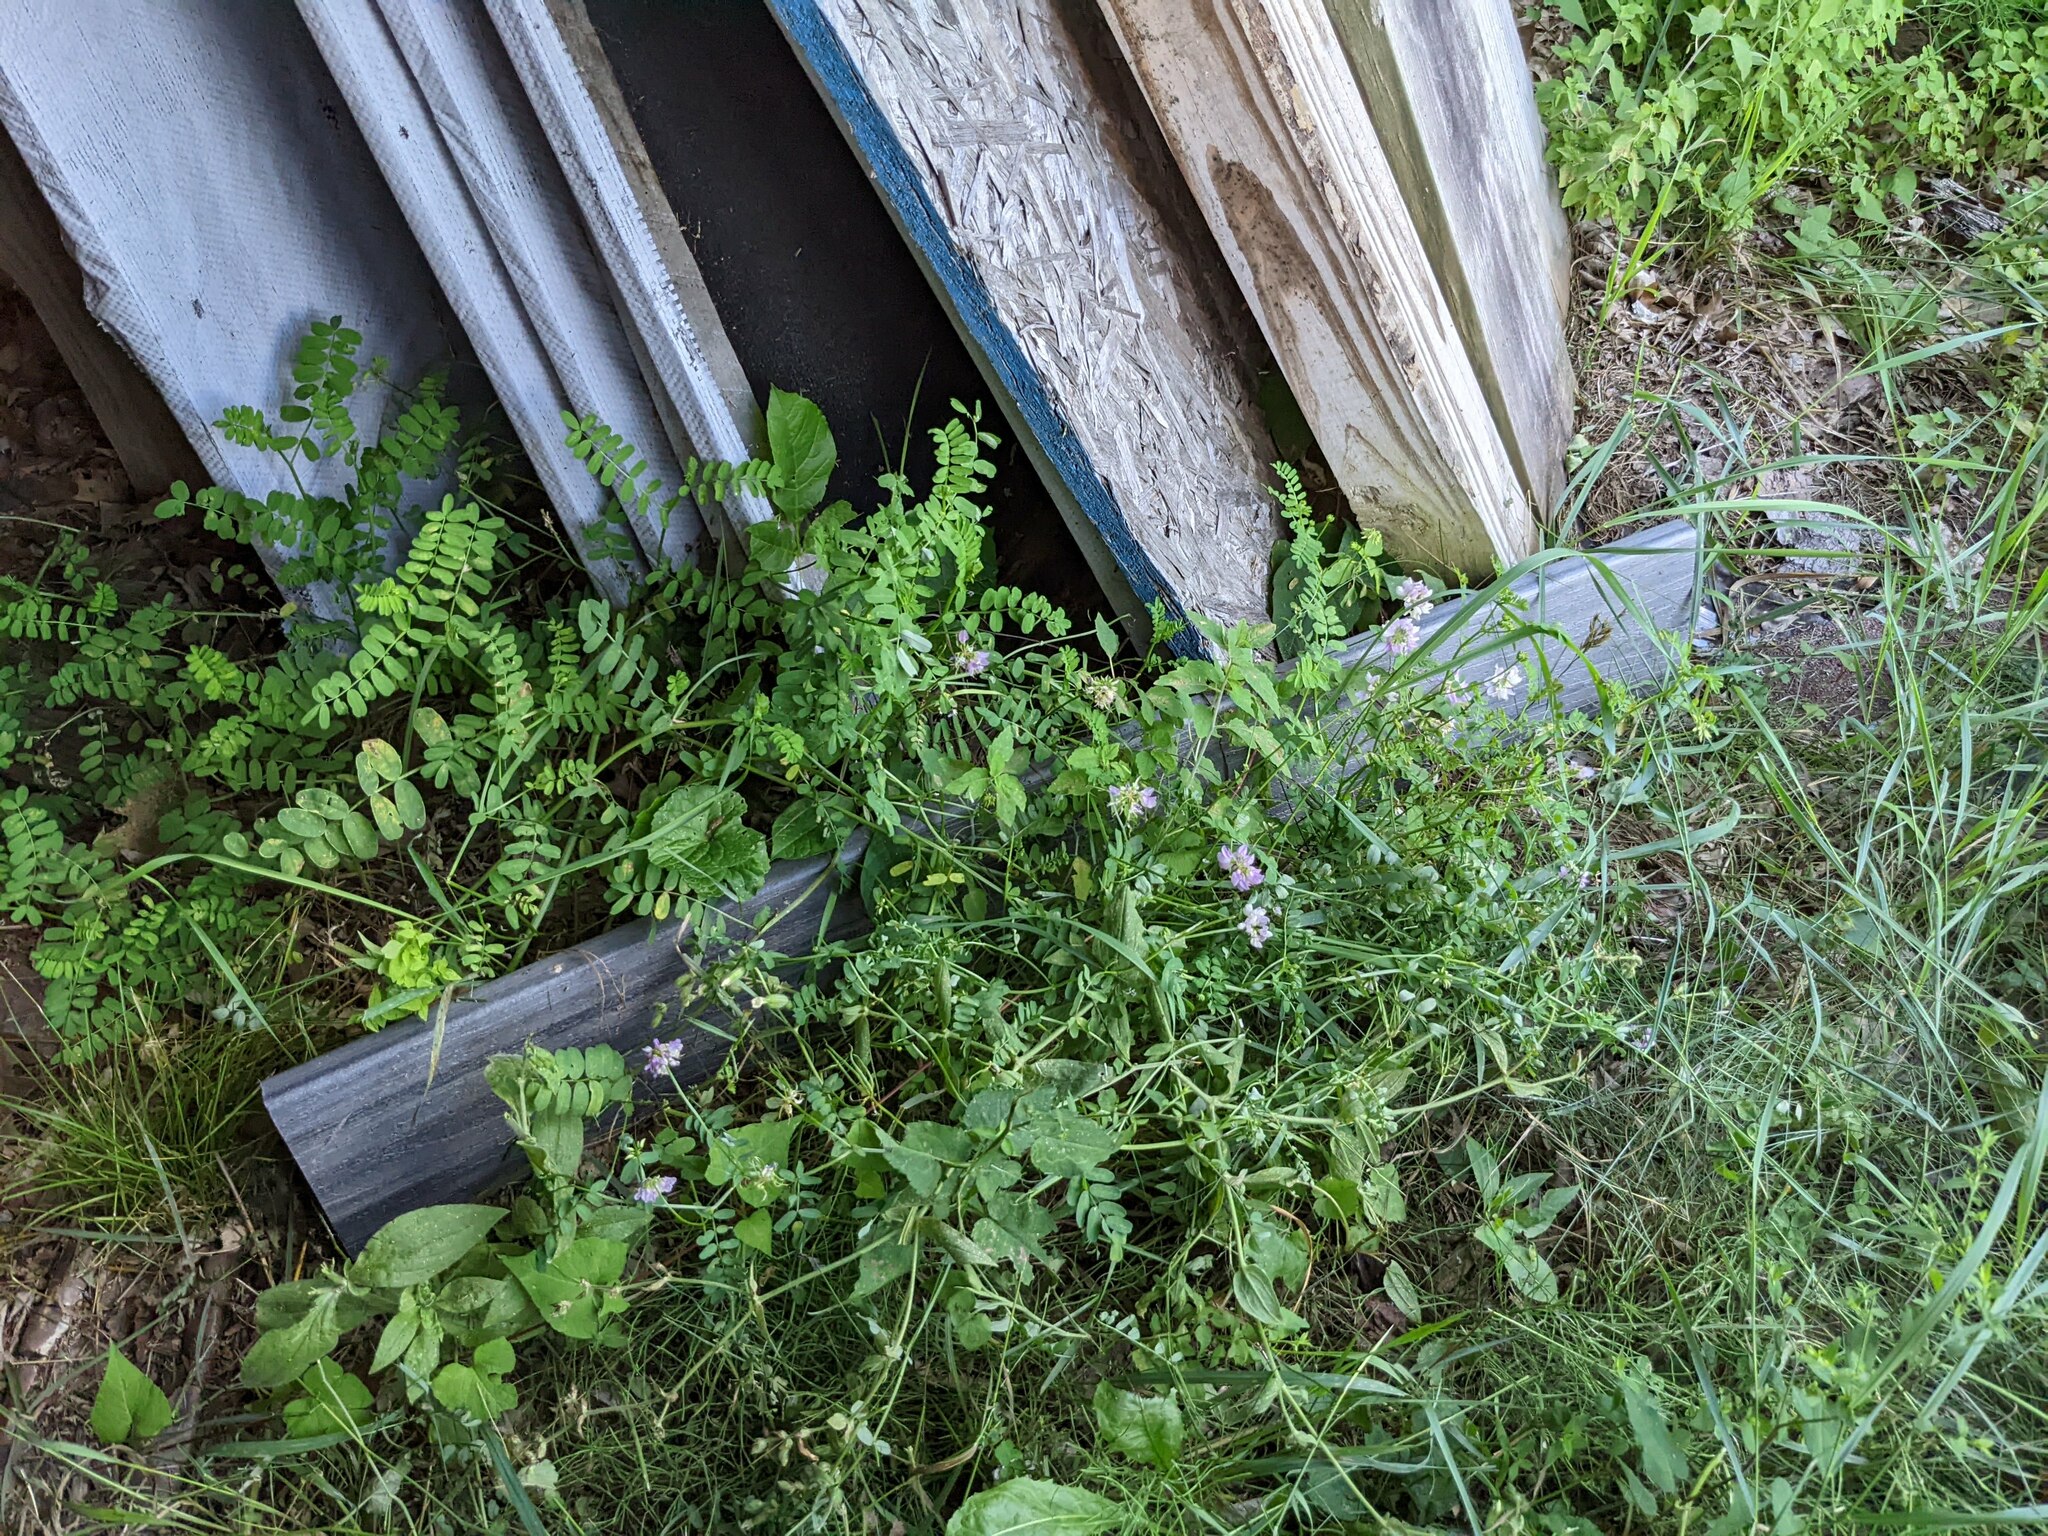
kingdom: Plantae
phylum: Tracheophyta
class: Magnoliopsida
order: Fabales
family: Fabaceae
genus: Coronilla
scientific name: Coronilla varia
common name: Crownvetch
